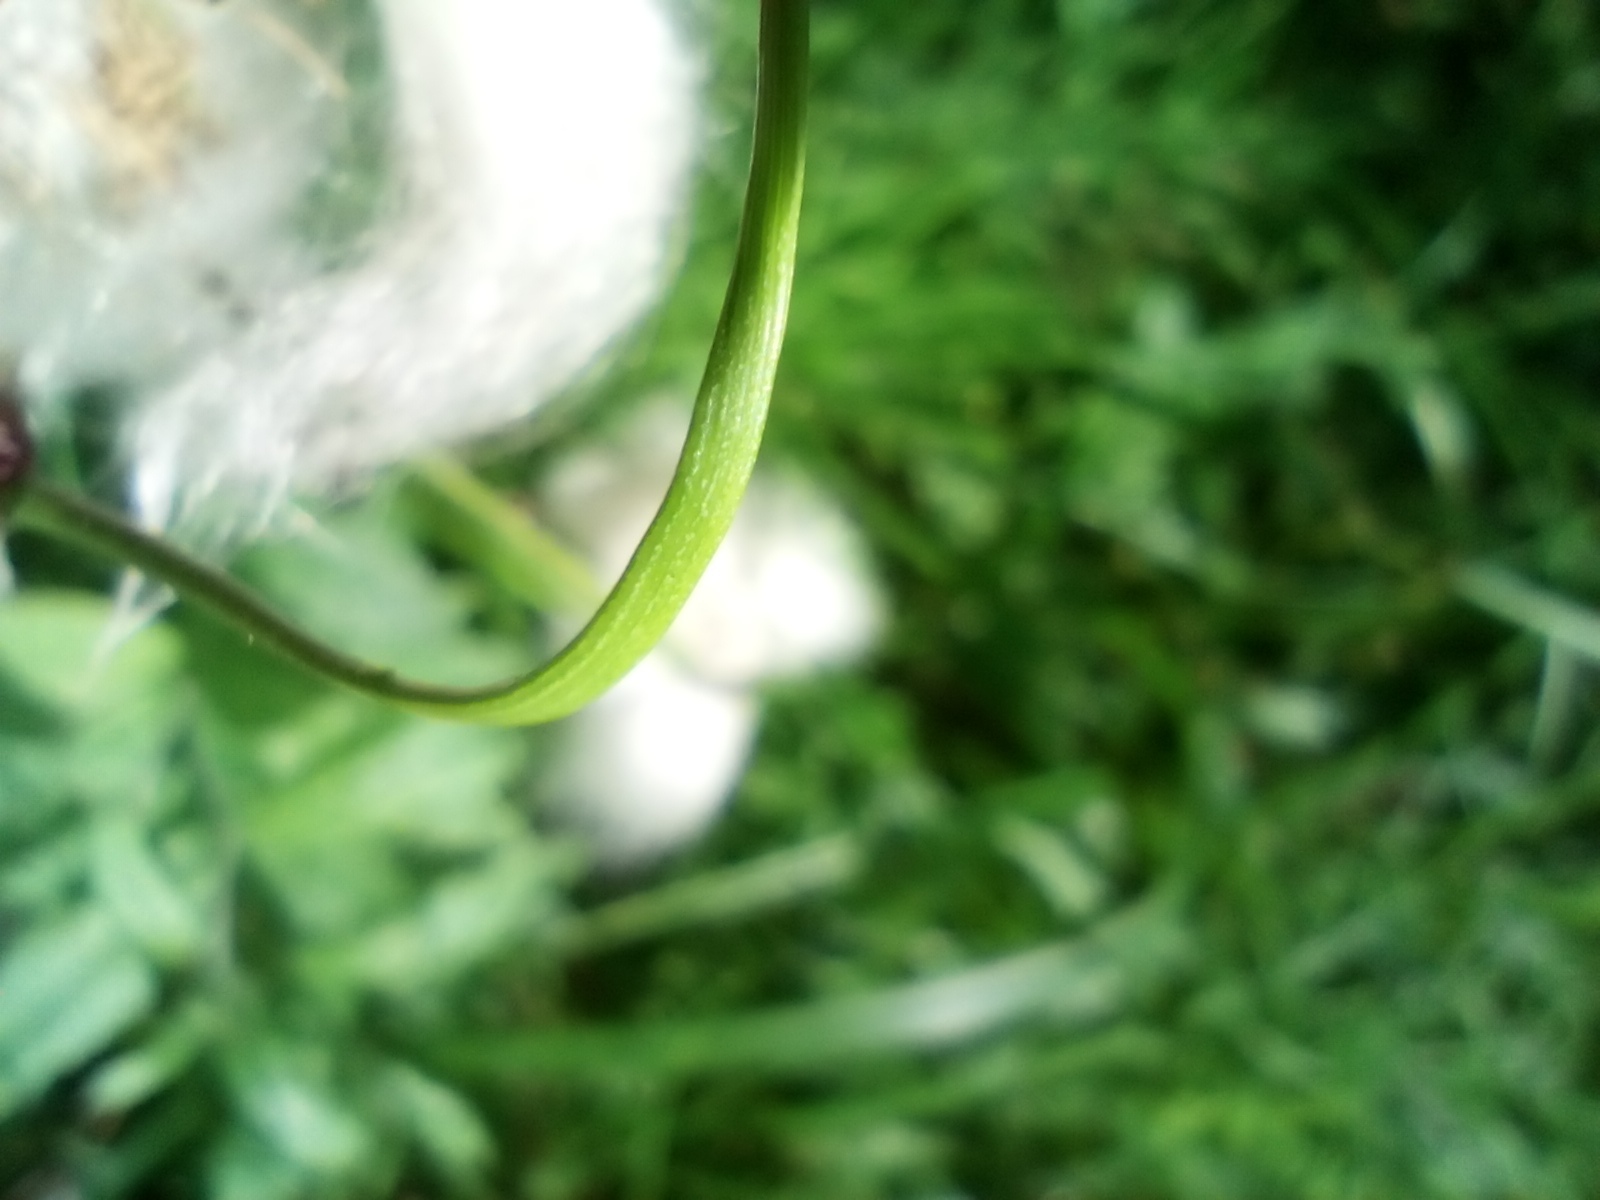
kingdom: Plantae
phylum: Tracheophyta
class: Liliopsida
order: Poales
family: Cyperaceae
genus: Eriophorum
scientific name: Eriophorum angustifolium
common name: Common cottongrass
